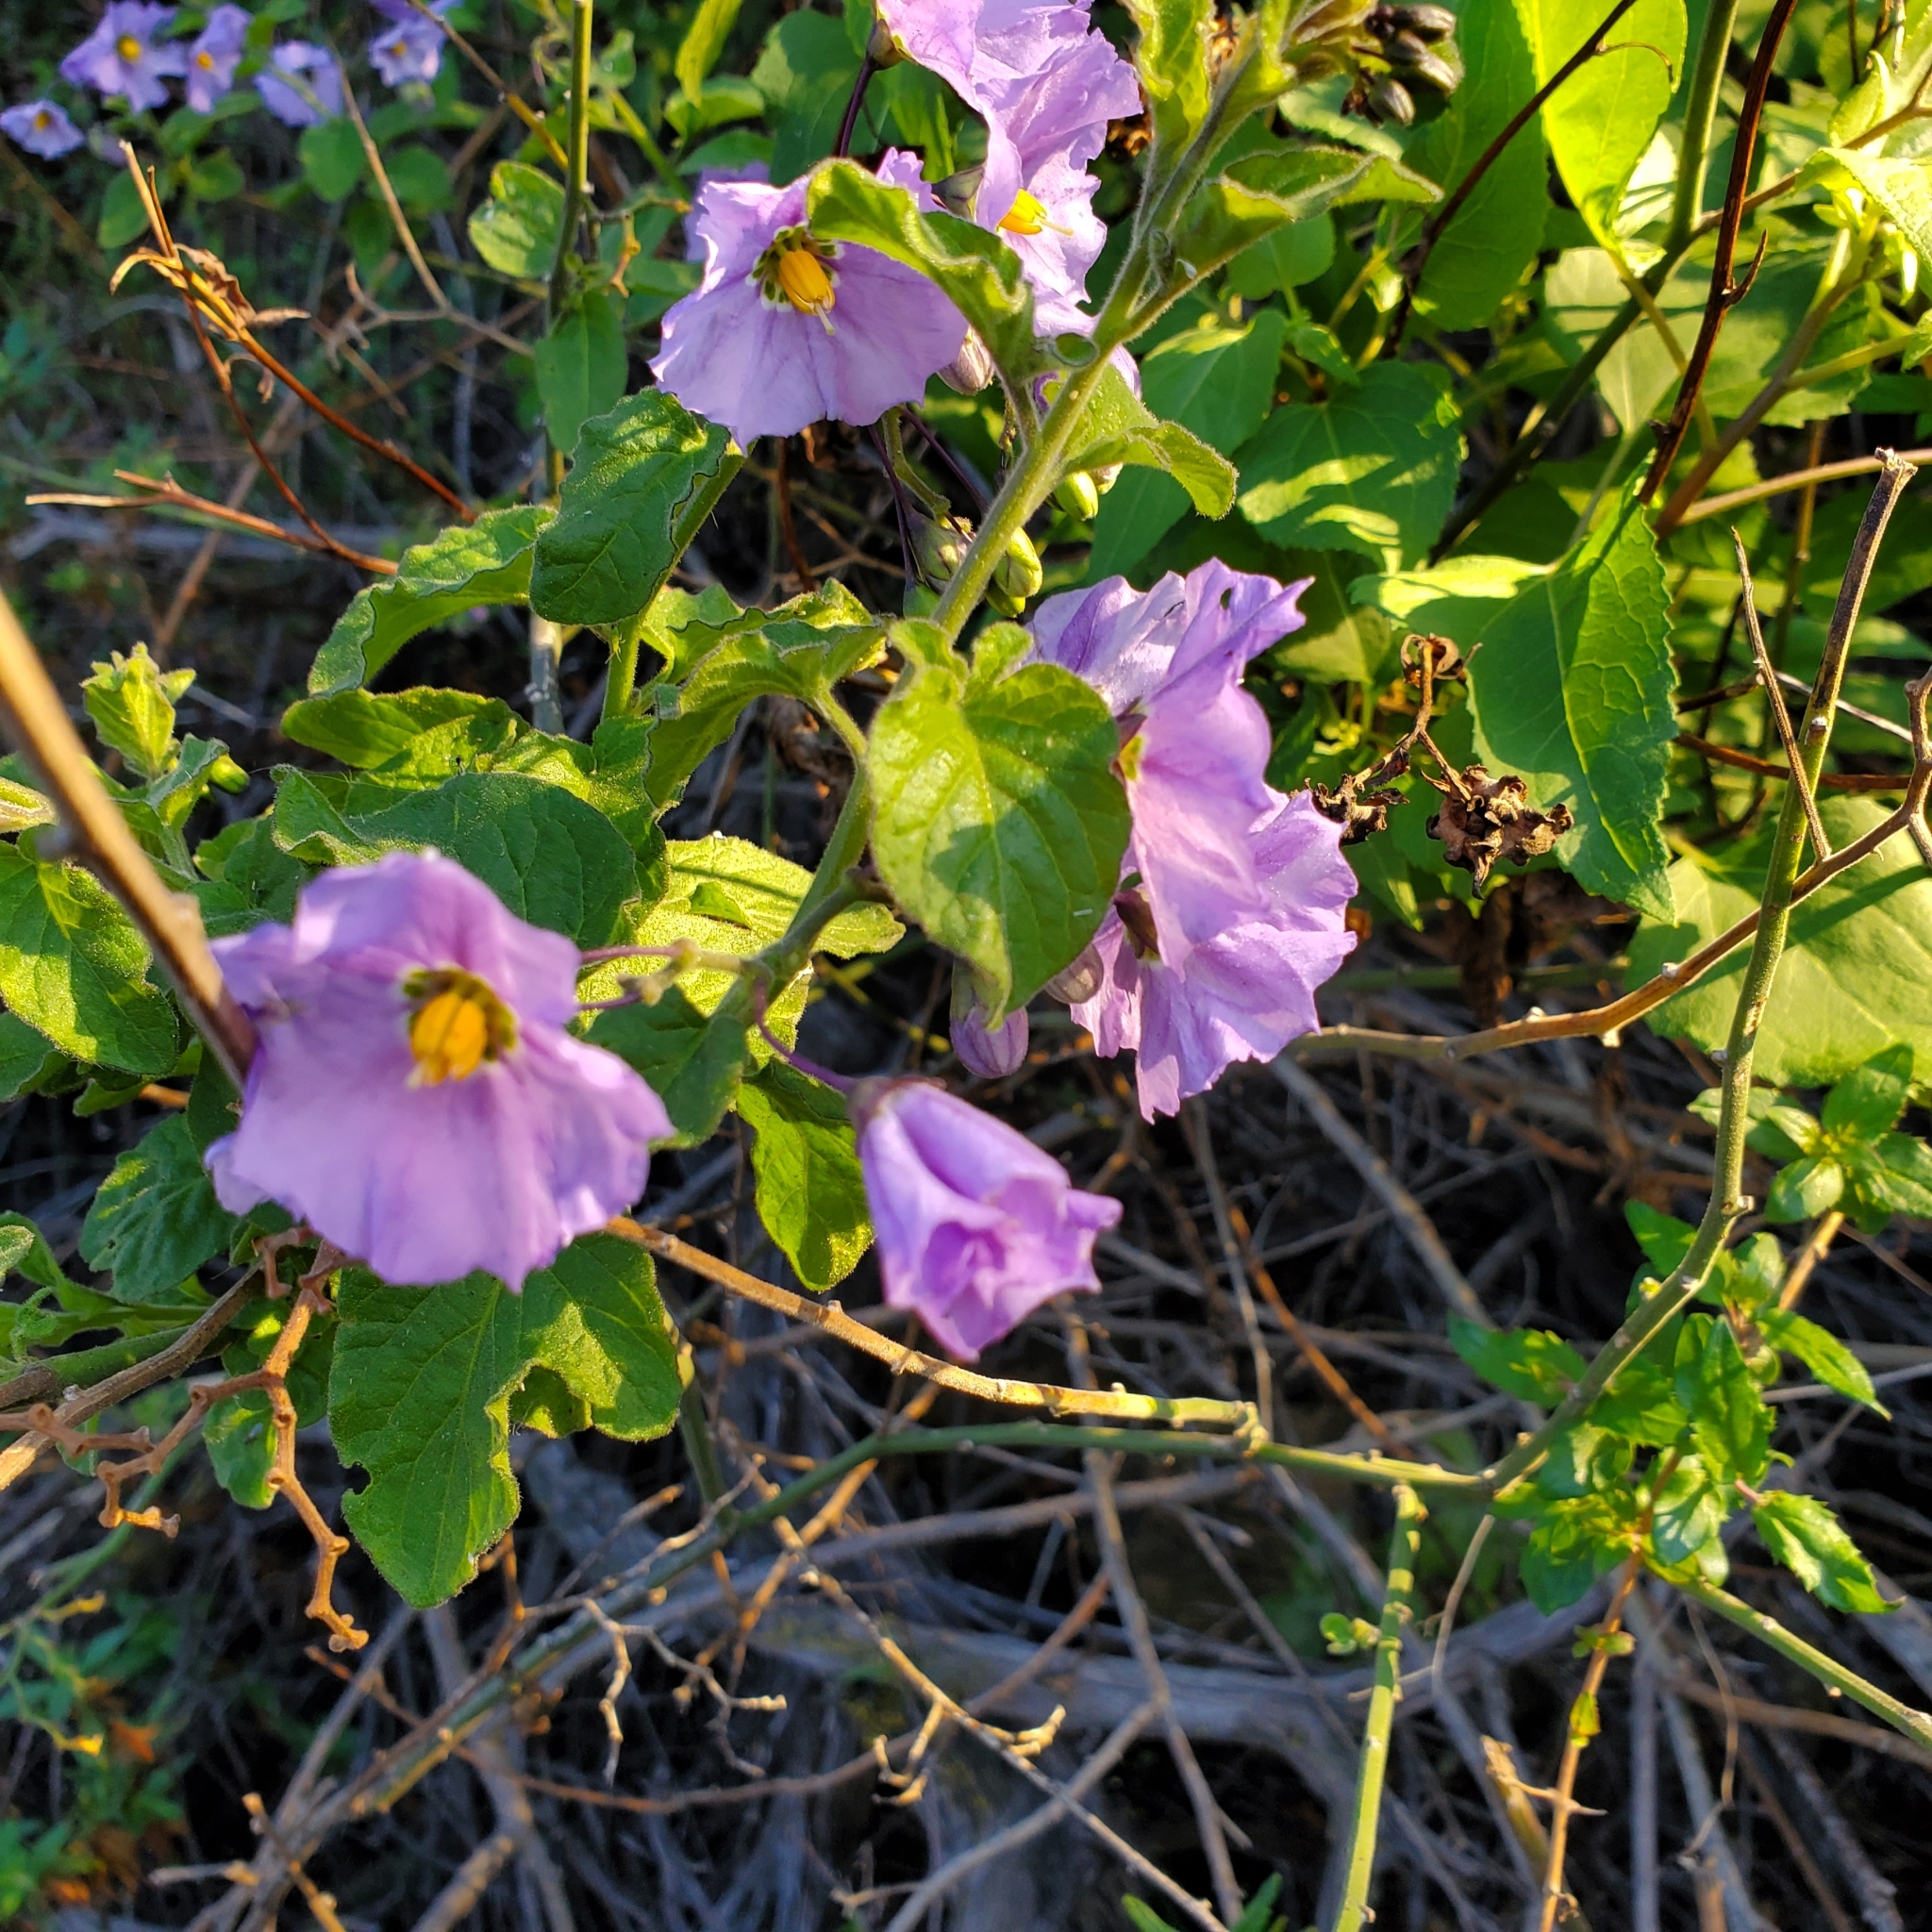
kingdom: Plantae
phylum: Tracheophyta
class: Magnoliopsida
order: Solanales
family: Solanaceae
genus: Solanum
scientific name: Solanum umbelliferum
